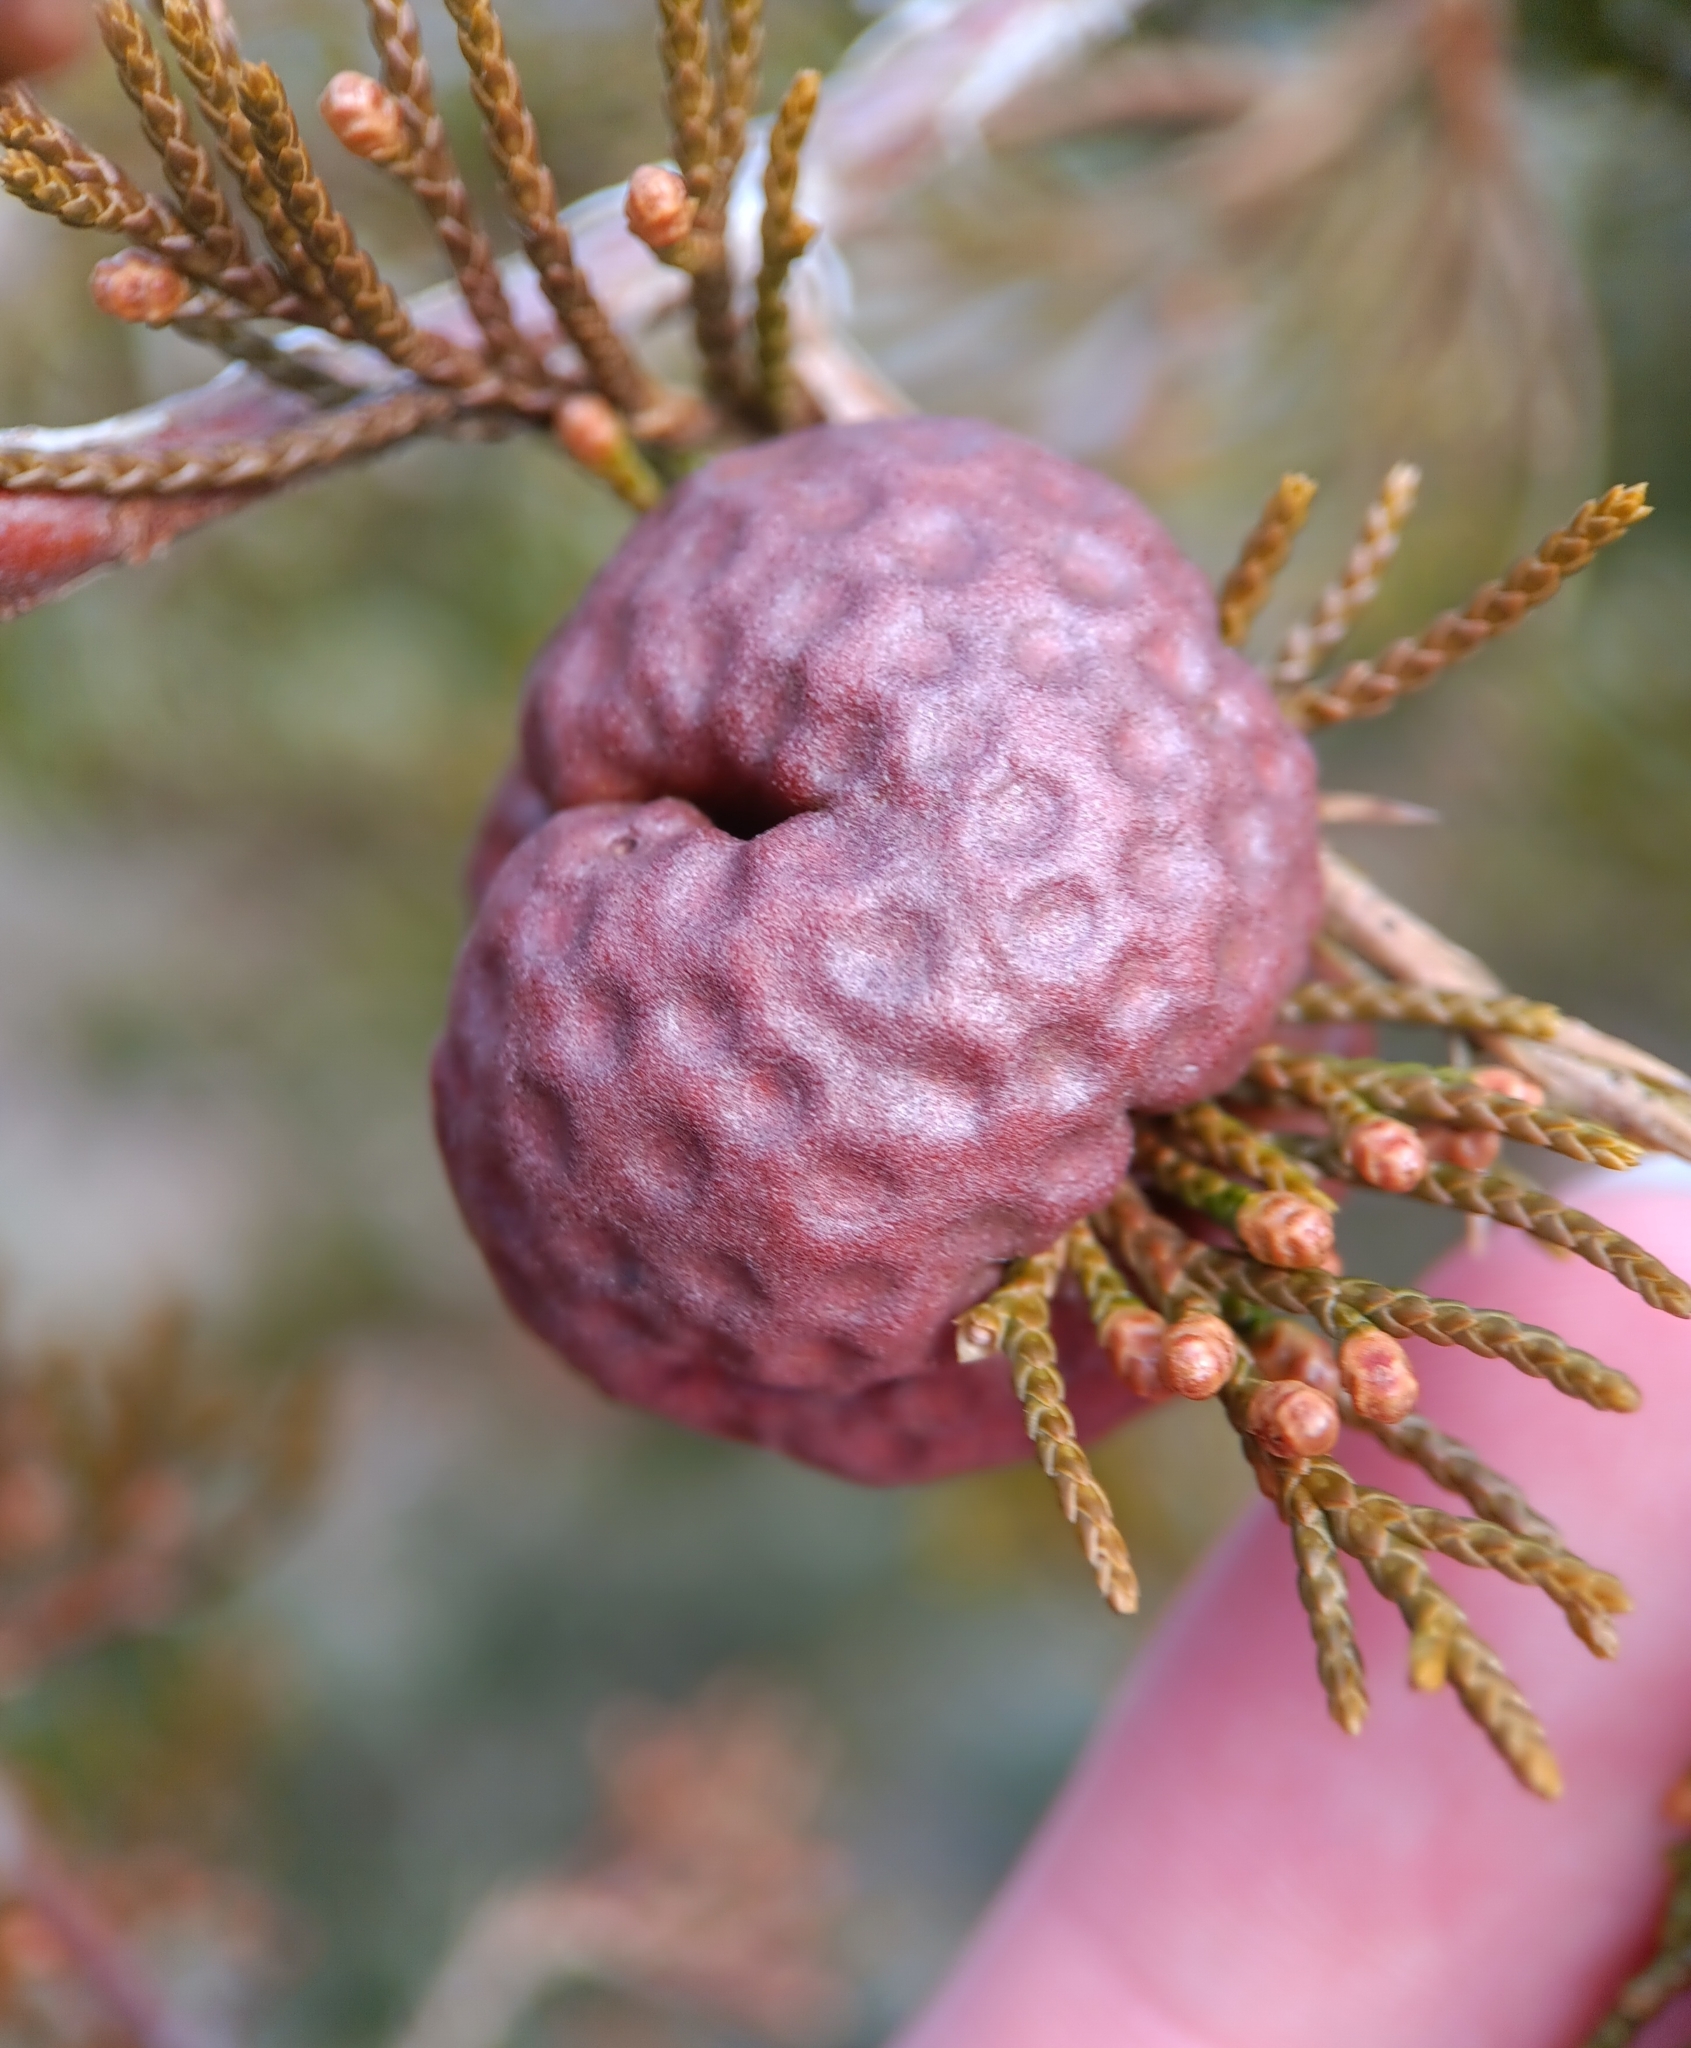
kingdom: Fungi
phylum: Basidiomycota
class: Pucciniomycetes
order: Pucciniales
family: Gymnosporangiaceae
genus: Gymnosporangium
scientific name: Gymnosporangium juniperi-virginianae
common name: Juniper-apple rust
